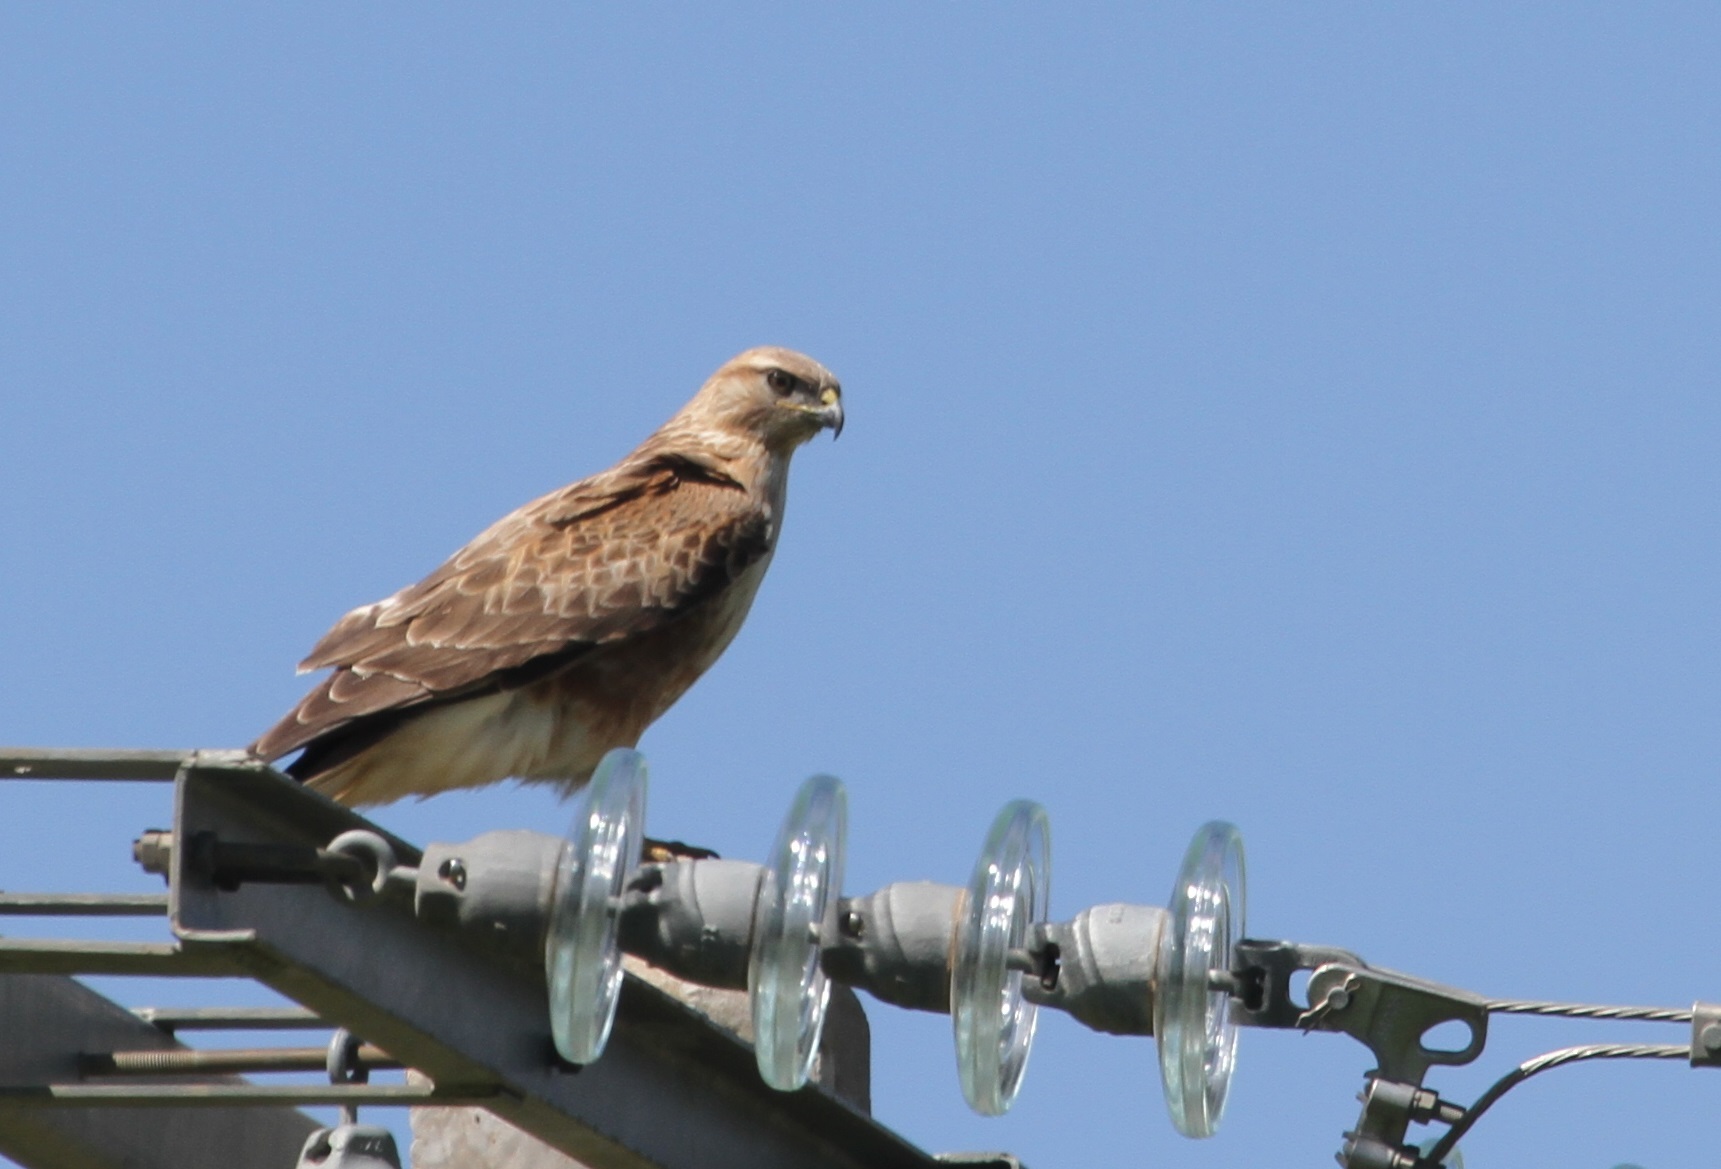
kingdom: Animalia
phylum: Chordata
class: Aves
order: Accipitriformes
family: Accipitridae
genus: Buteo
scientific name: Buteo rufinus
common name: Long-legged buzzard
